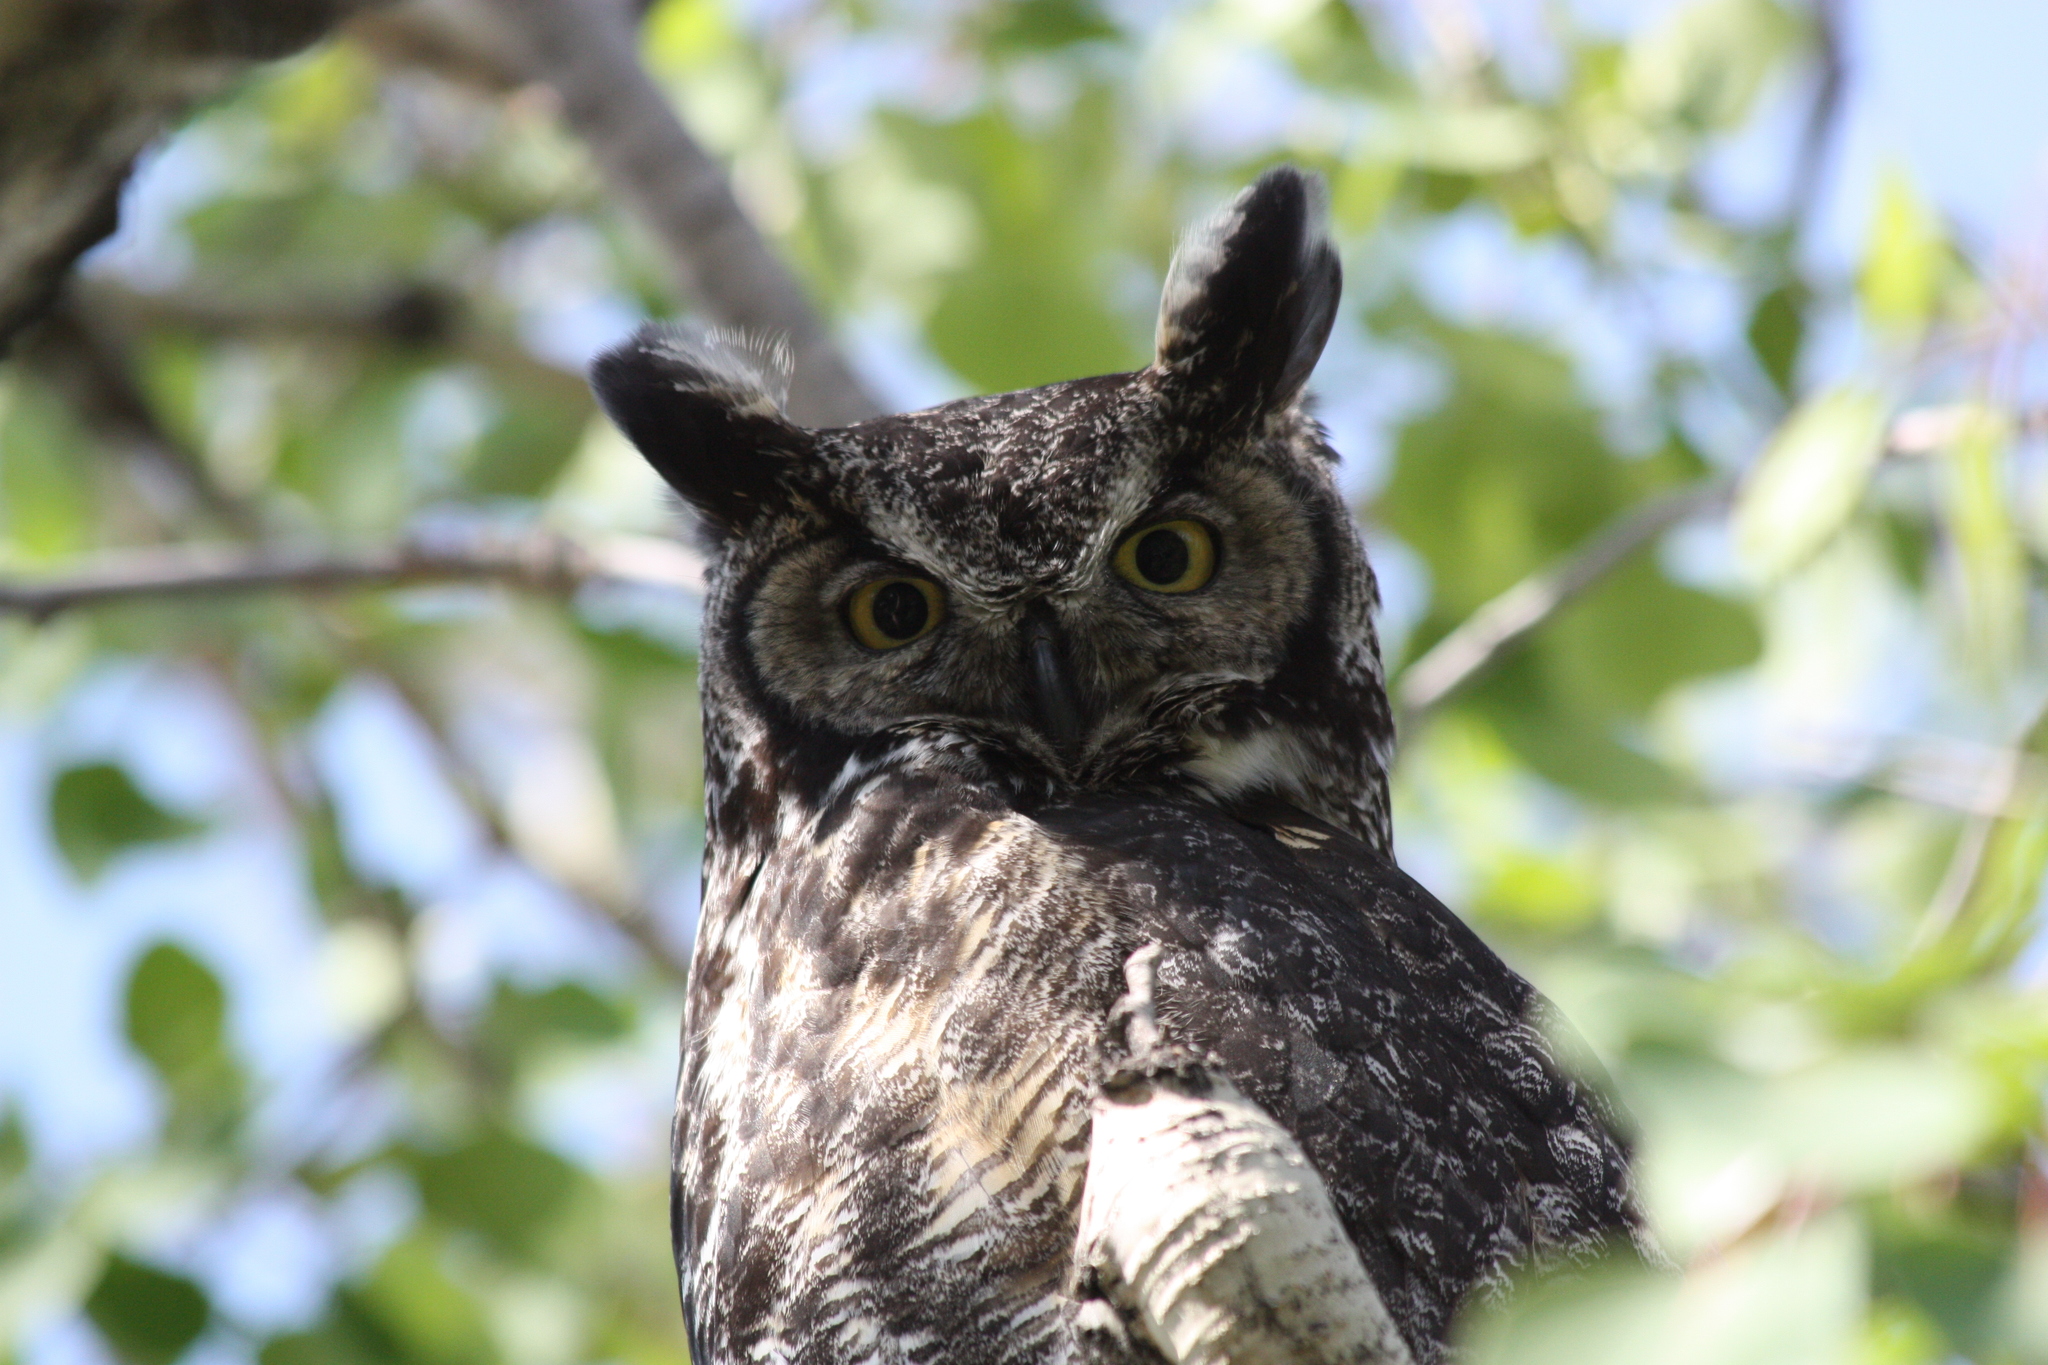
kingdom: Animalia
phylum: Chordata
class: Aves
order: Strigiformes
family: Strigidae
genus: Bubo
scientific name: Bubo virginianus
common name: Great horned owl
